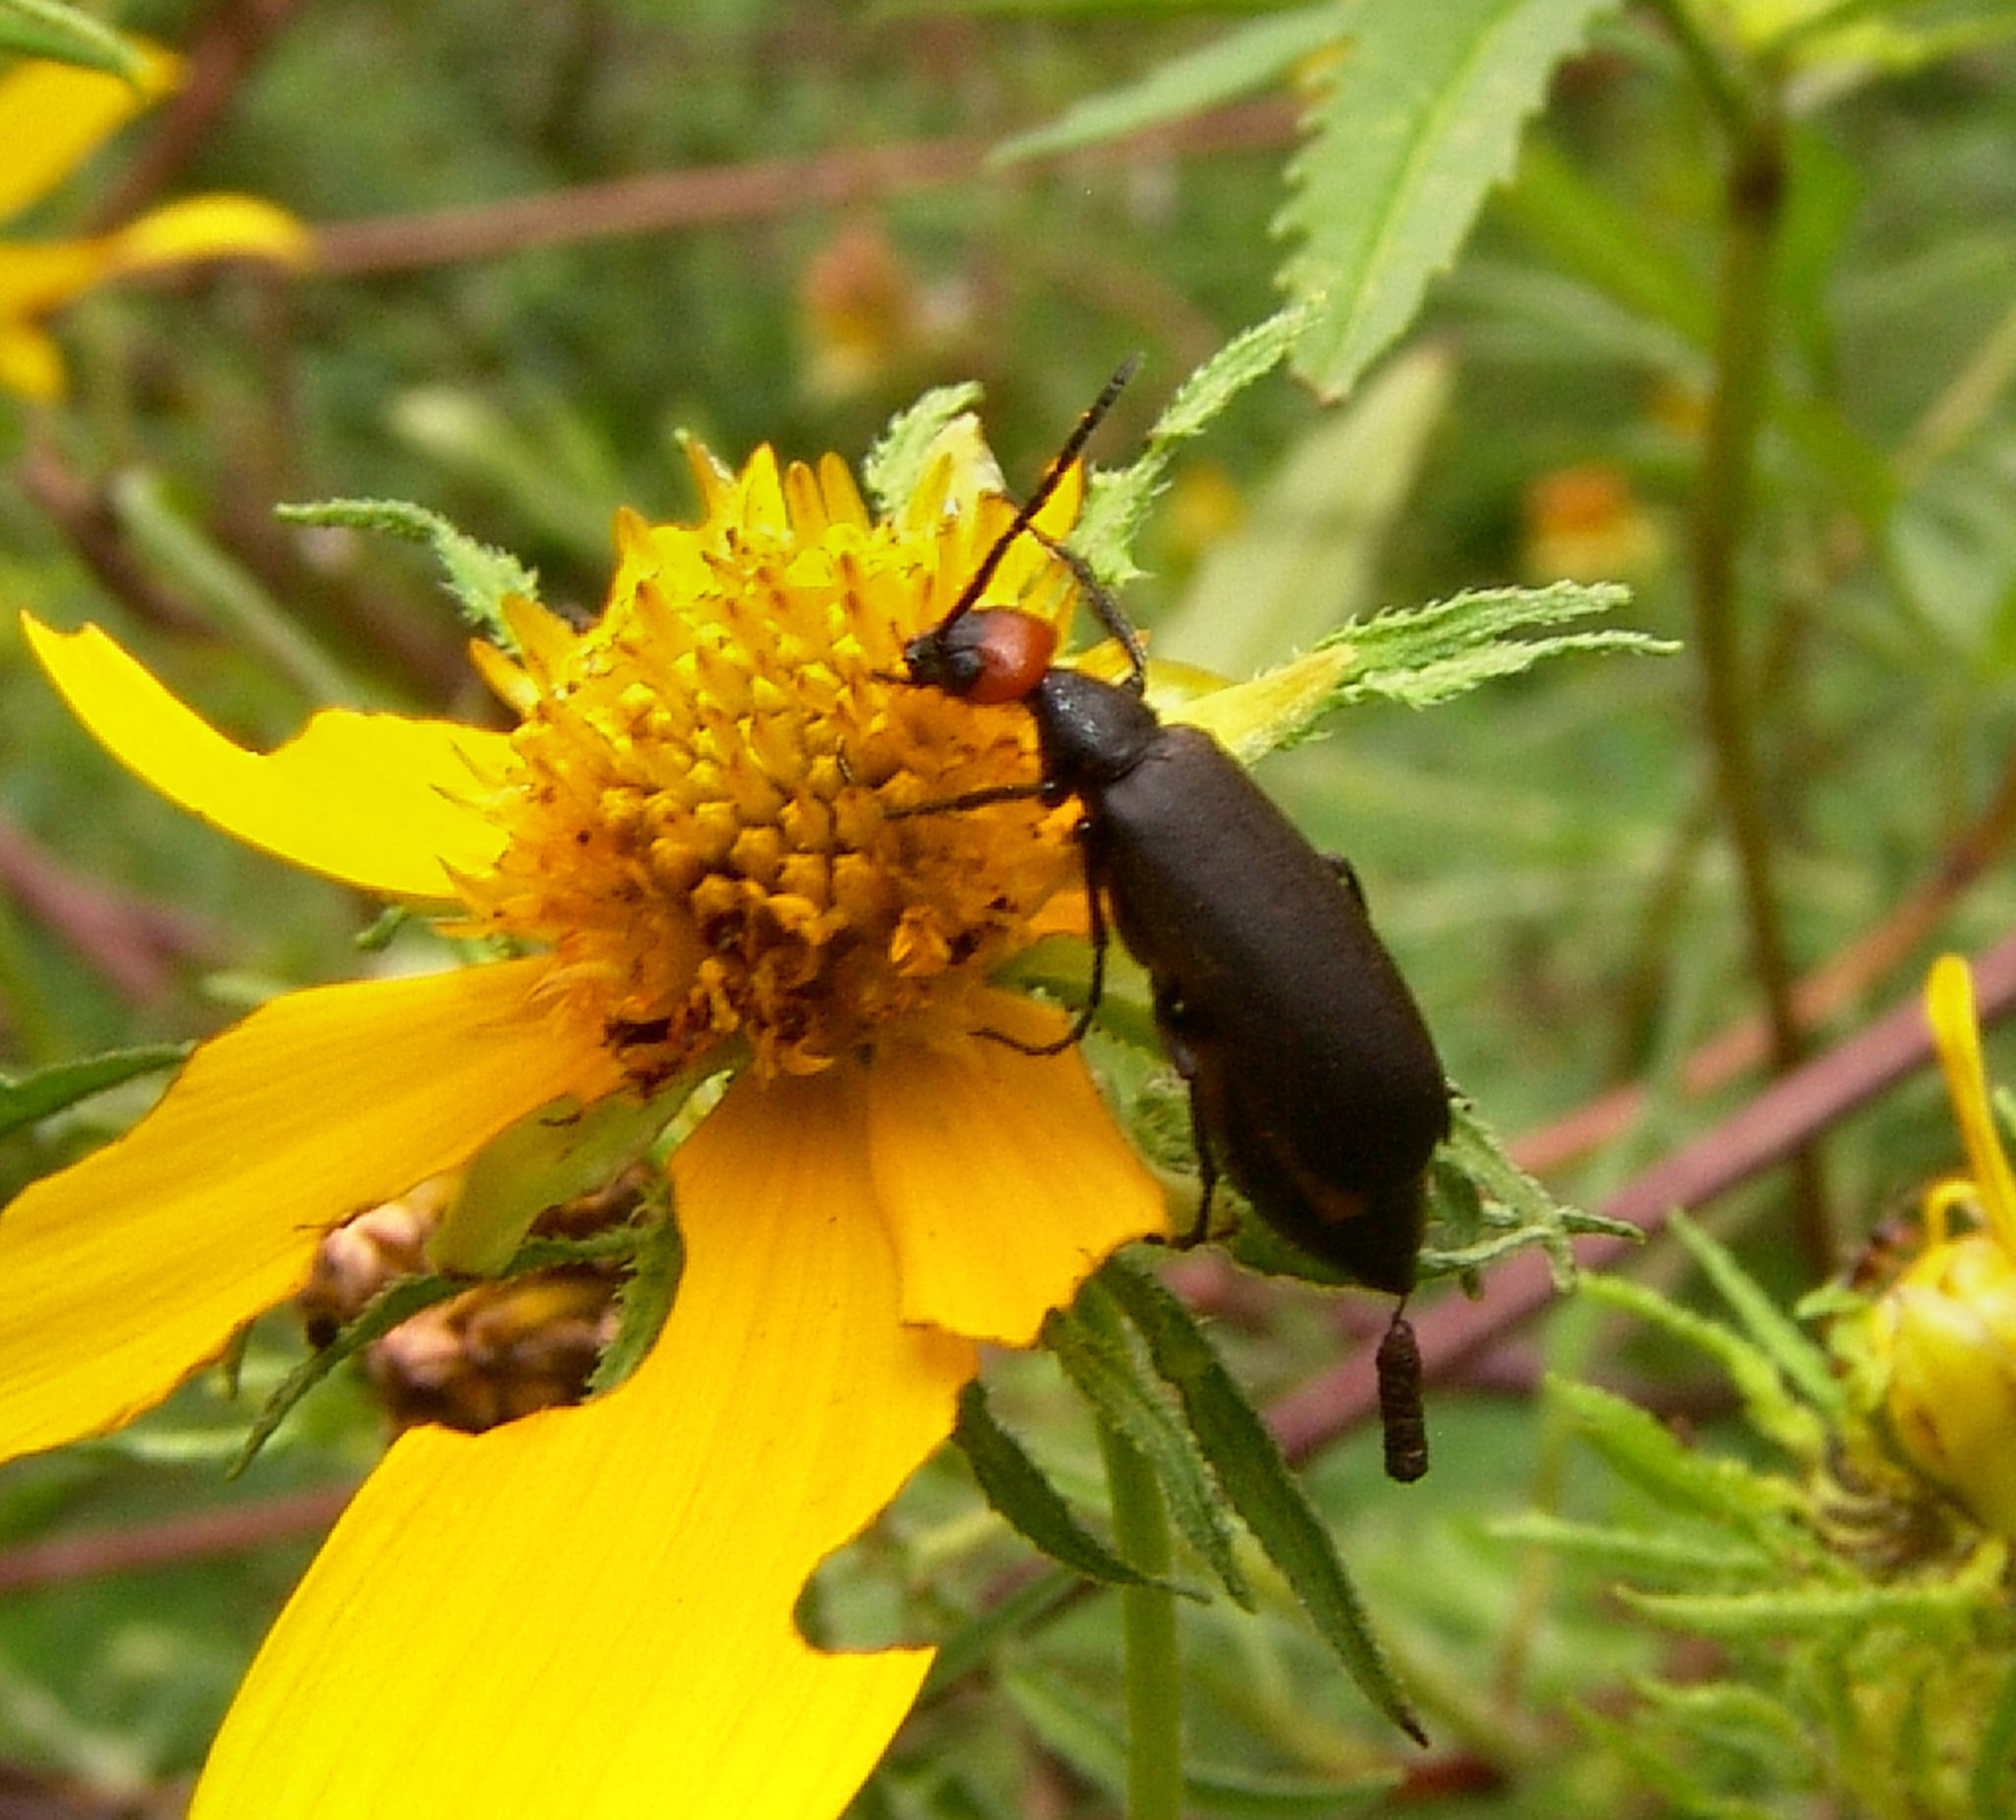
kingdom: Animalia
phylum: Arthropoda
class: Insecta
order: Coleoptera
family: Meloidae
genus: Epicauta
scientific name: Epicauta atrata
